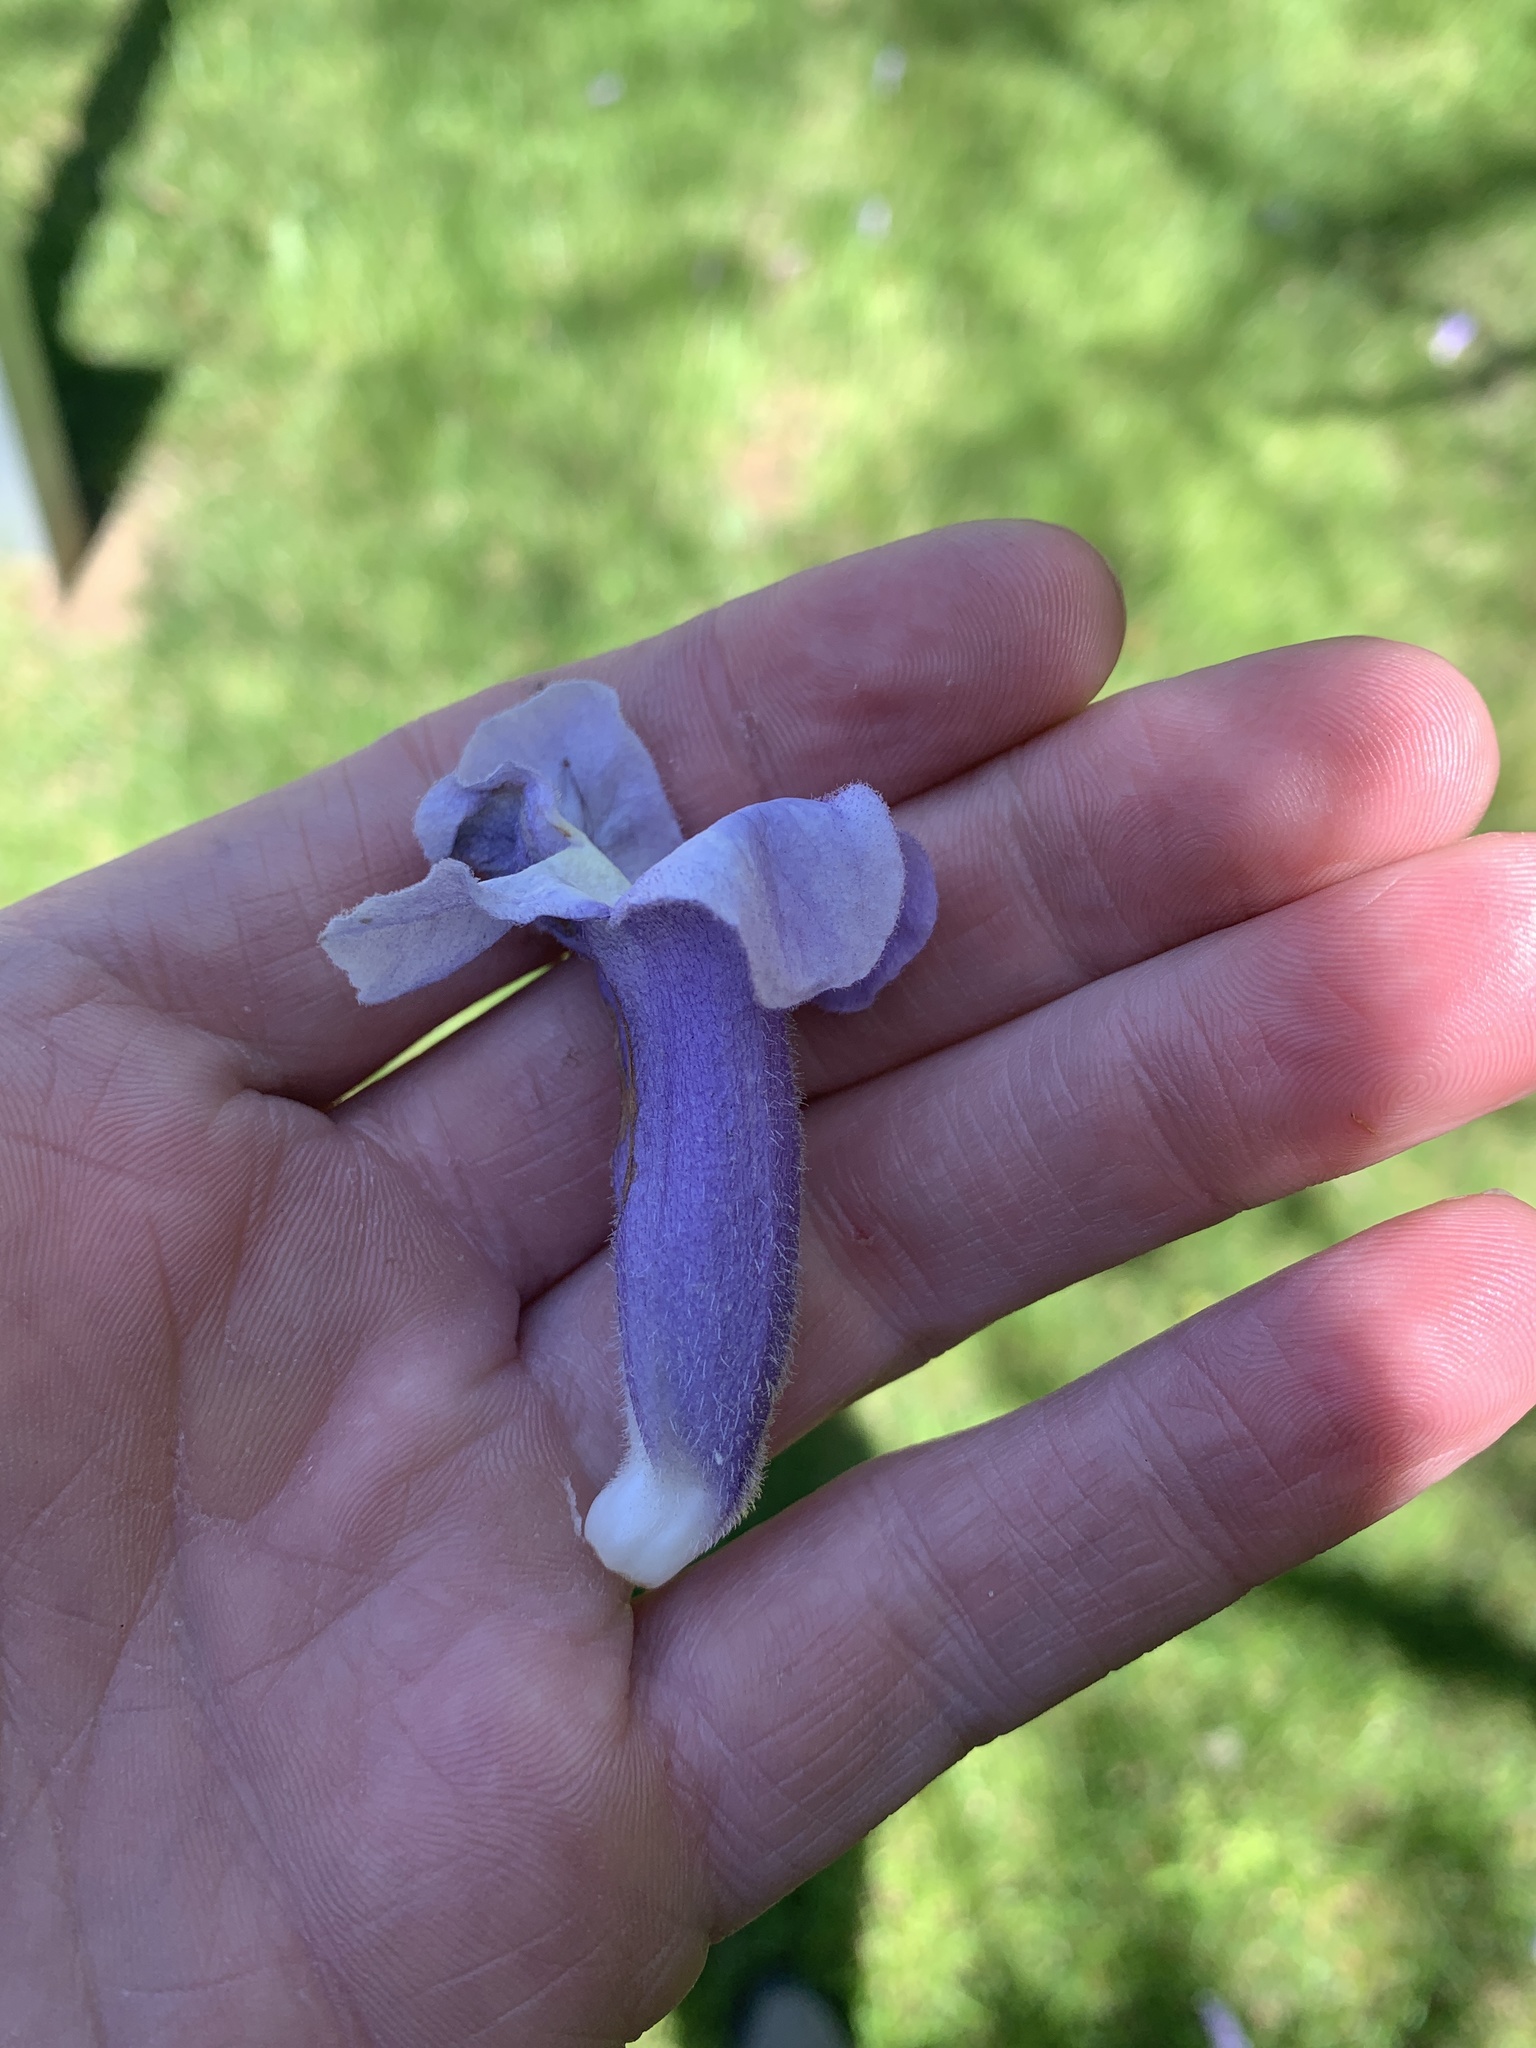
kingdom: Plantae
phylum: Tracheophyta
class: Magnoliopsida
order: Lamiales
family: Paulowniaceae
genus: Paulownia
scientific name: Paulownia tomentosa
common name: Foxglove-tree
